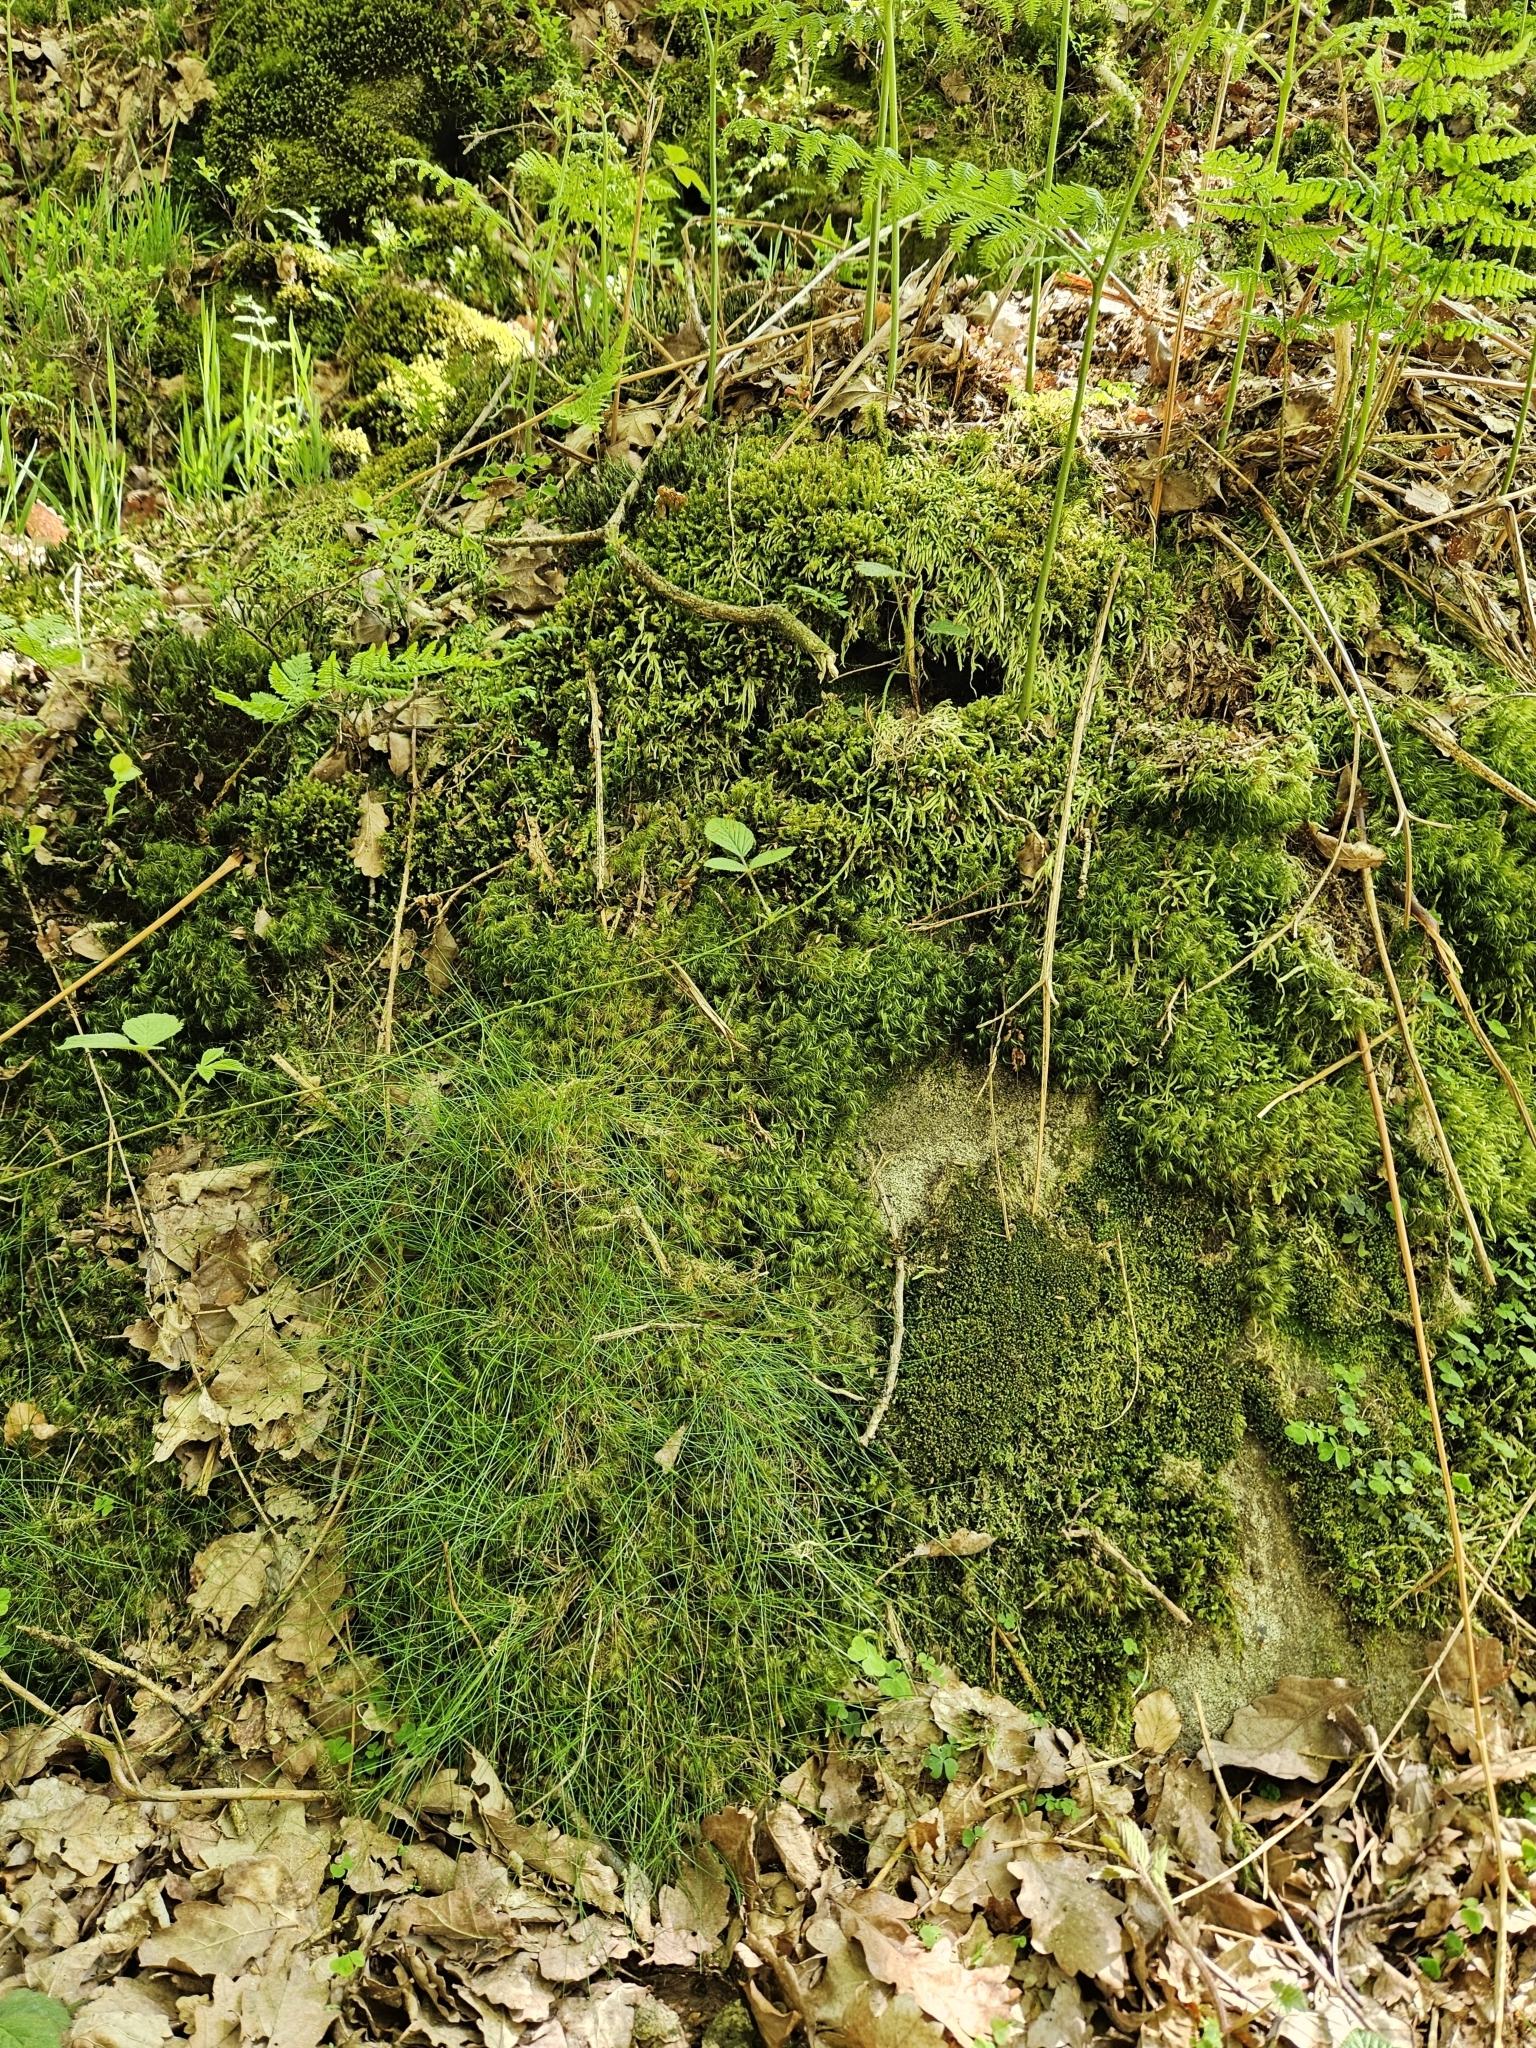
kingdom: Plantae
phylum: Bryophyta
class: Bryopsida
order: Hypnales
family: Plagiotheciaceae
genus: Plagiothecium
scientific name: Plagiothecium undulatum
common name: Waved silk-moss
